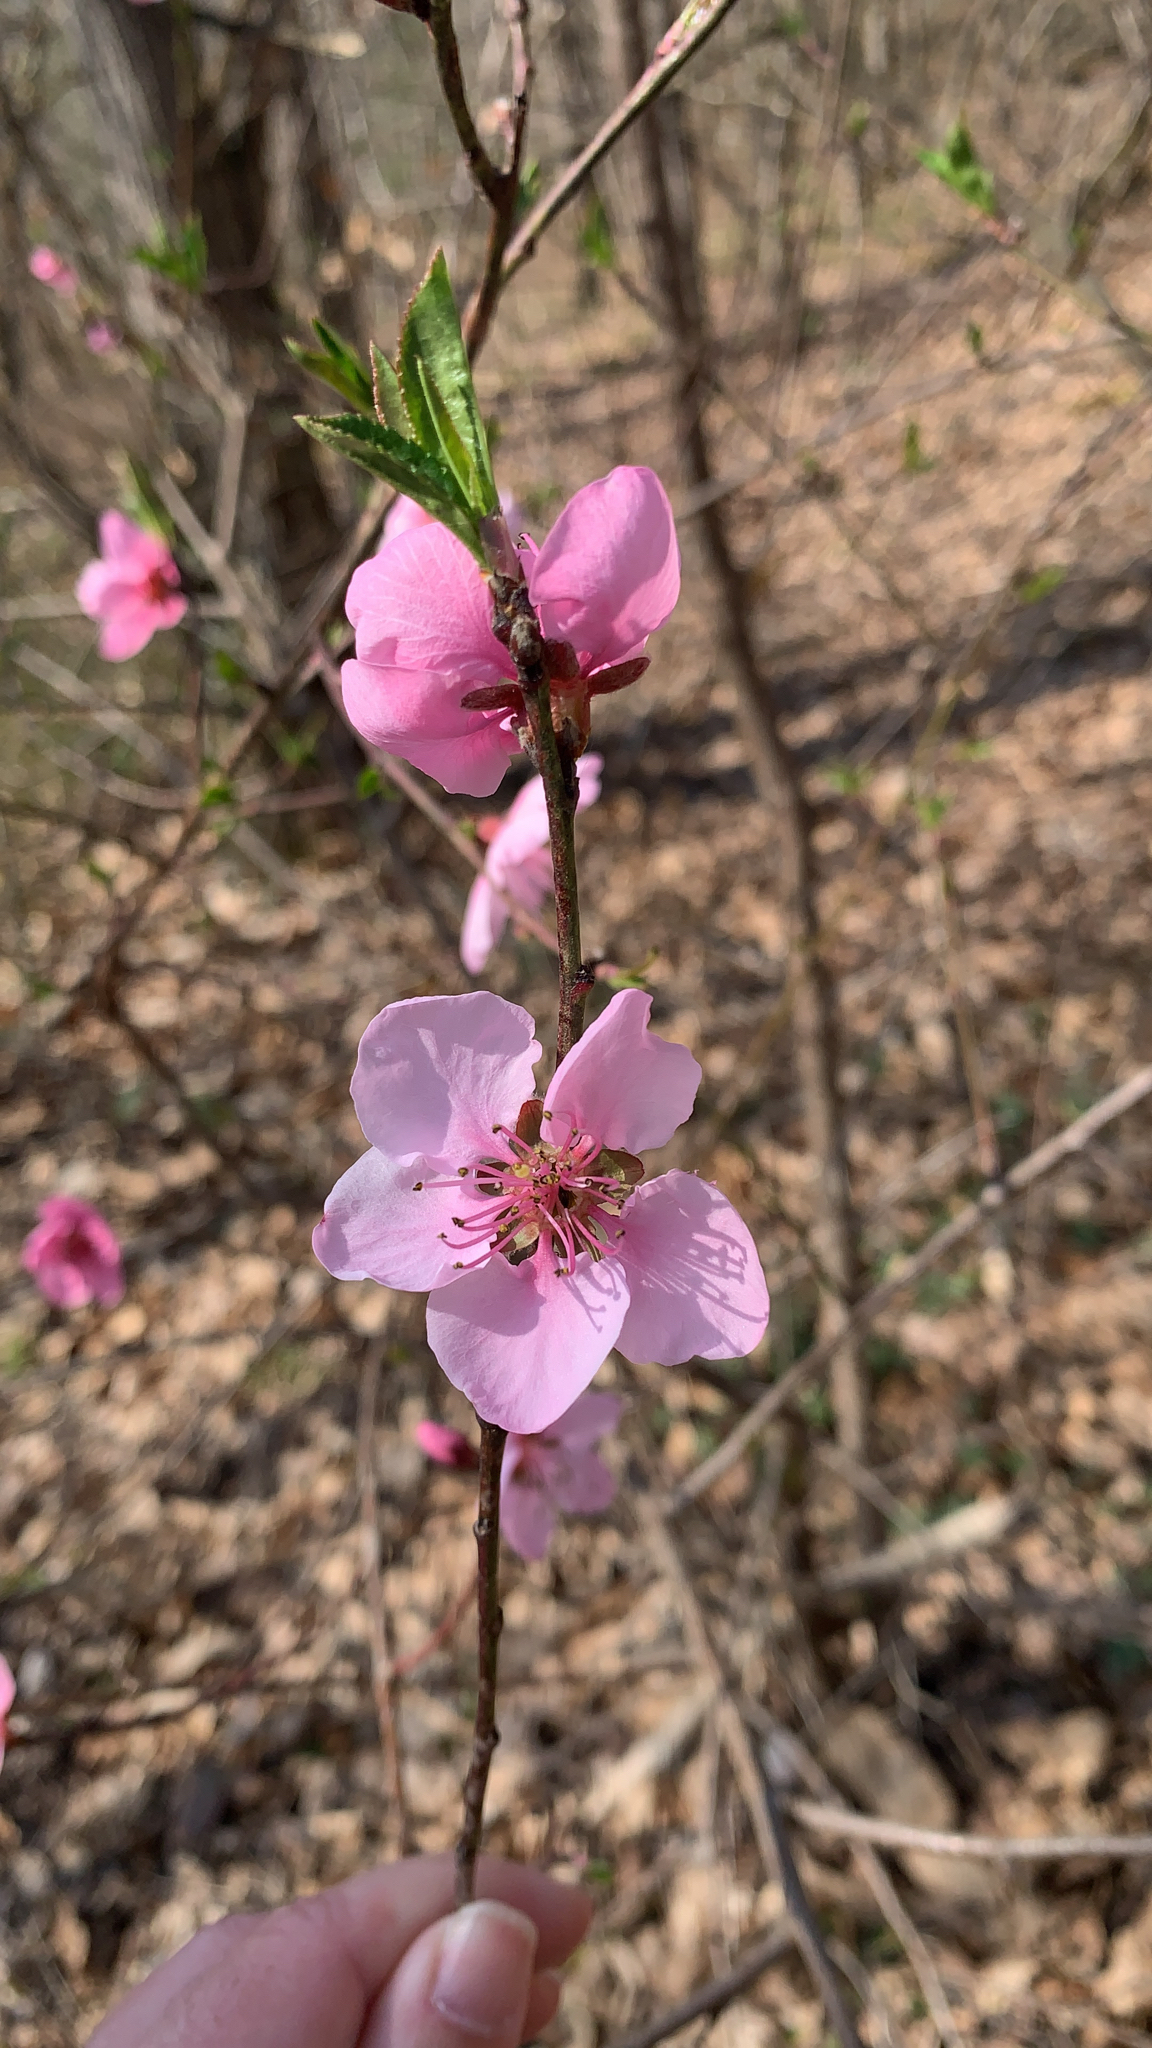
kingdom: Plantae
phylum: Tracheophyta
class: Magnoliopsida
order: Rosales
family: Rosaceae
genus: Prunus
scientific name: Prunus persica
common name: Peach
